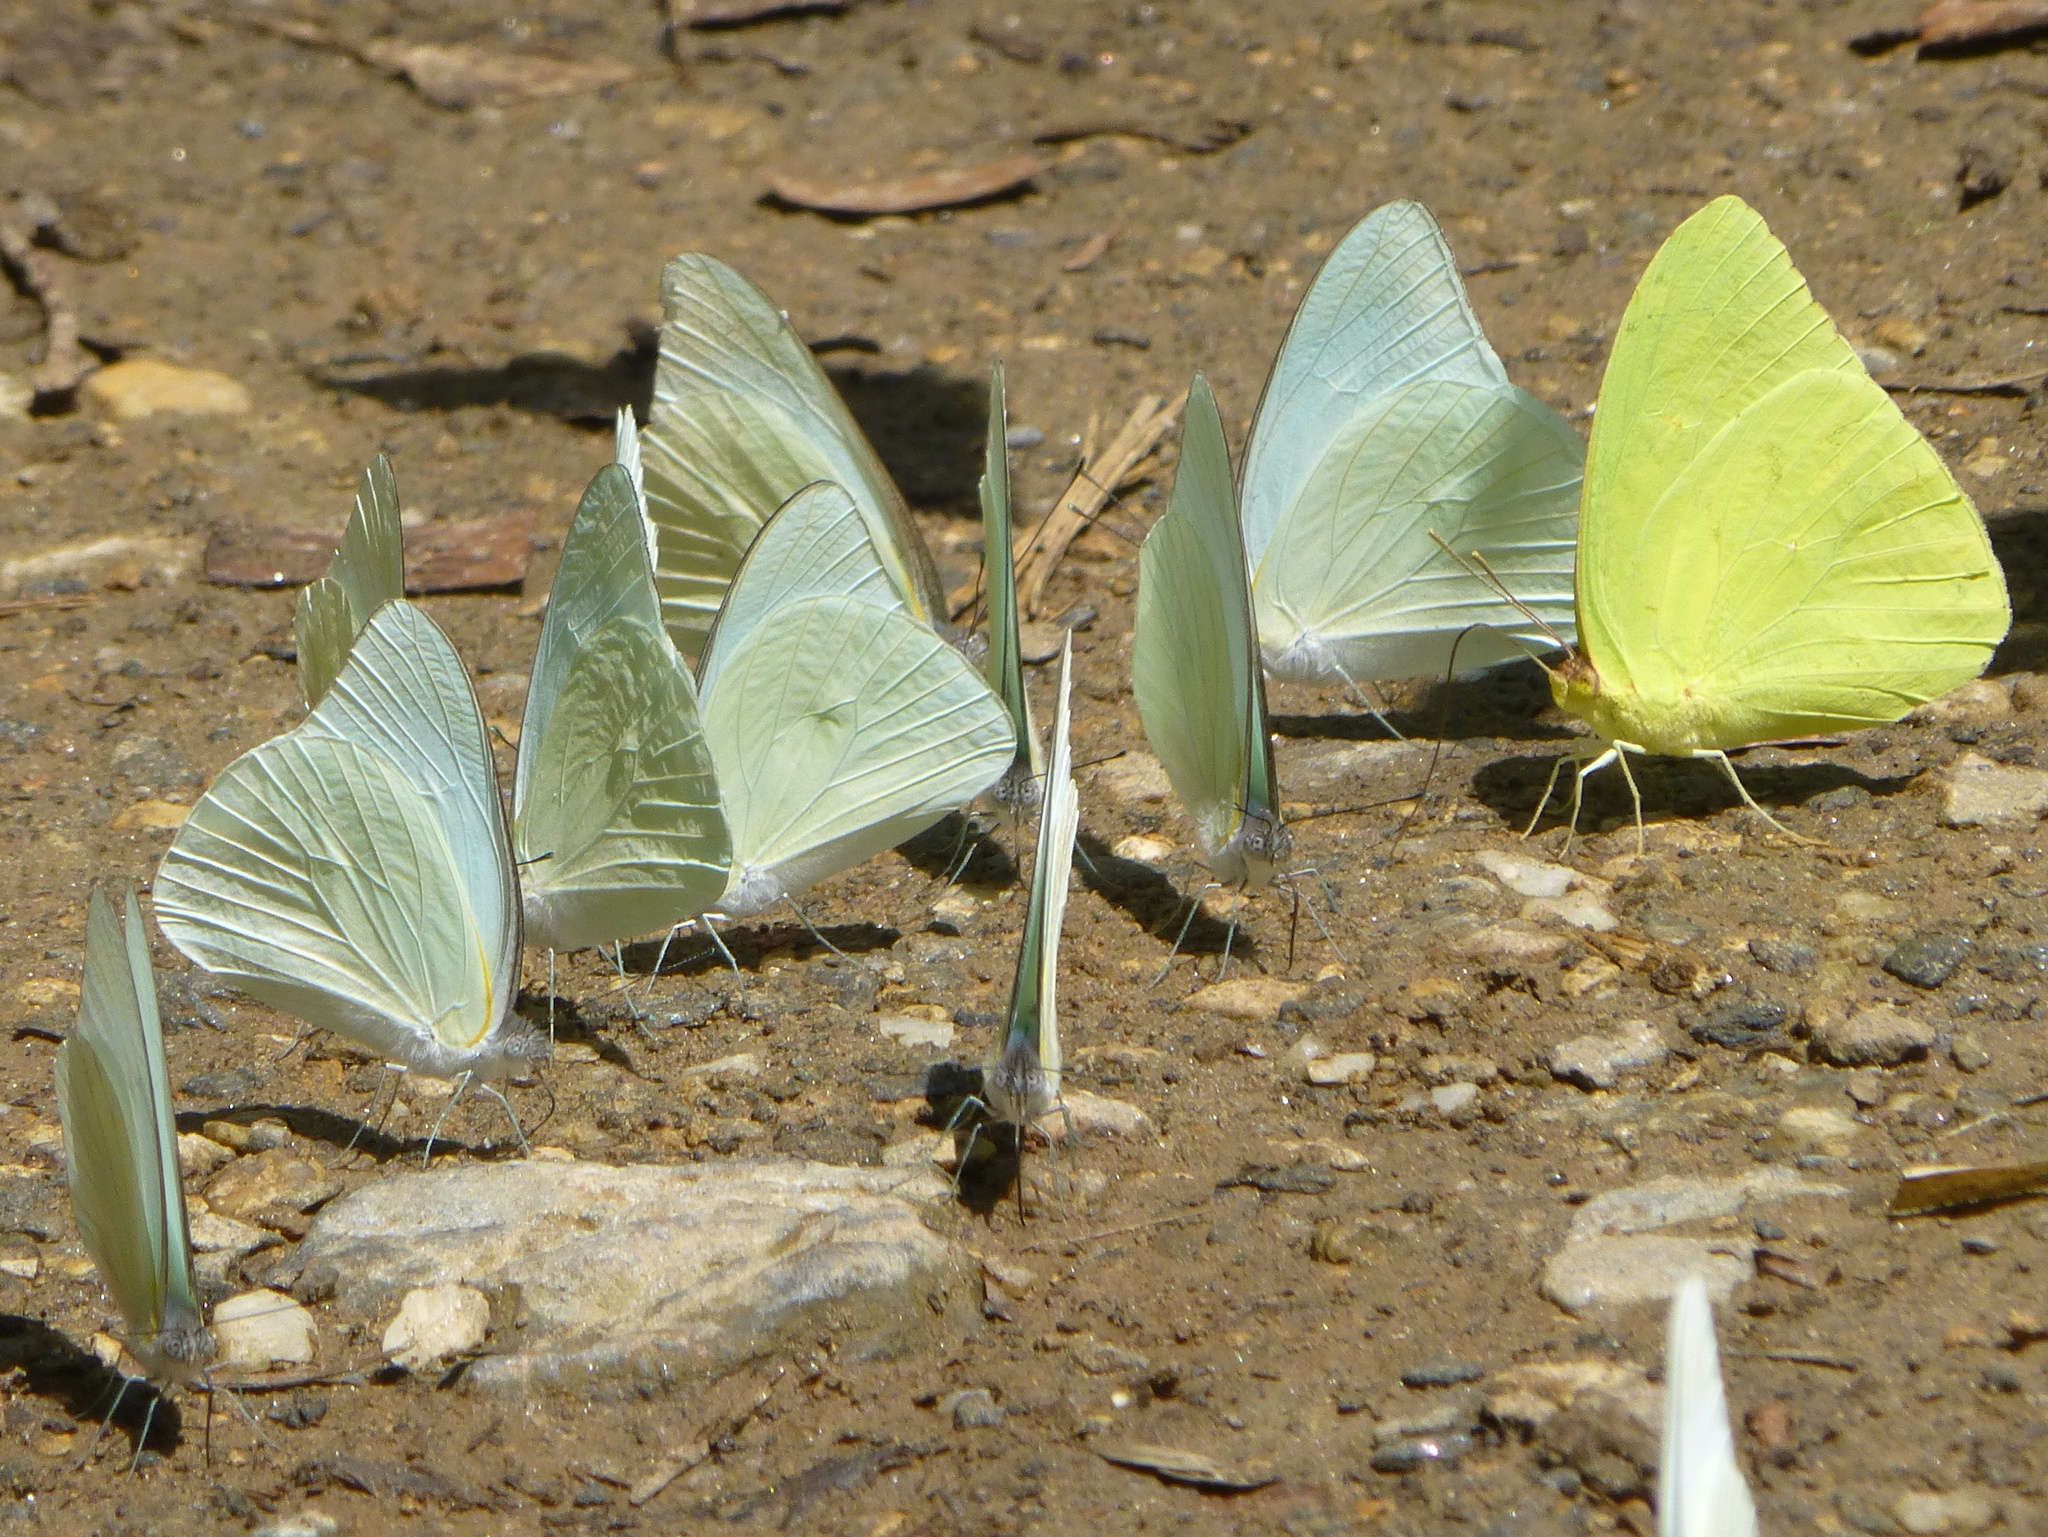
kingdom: Animalia
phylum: Arthropoda
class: Insecta
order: Lepidoptera
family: Pieridae
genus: Glutophrissa
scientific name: Glutophrissa drusilla
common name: Florida white
